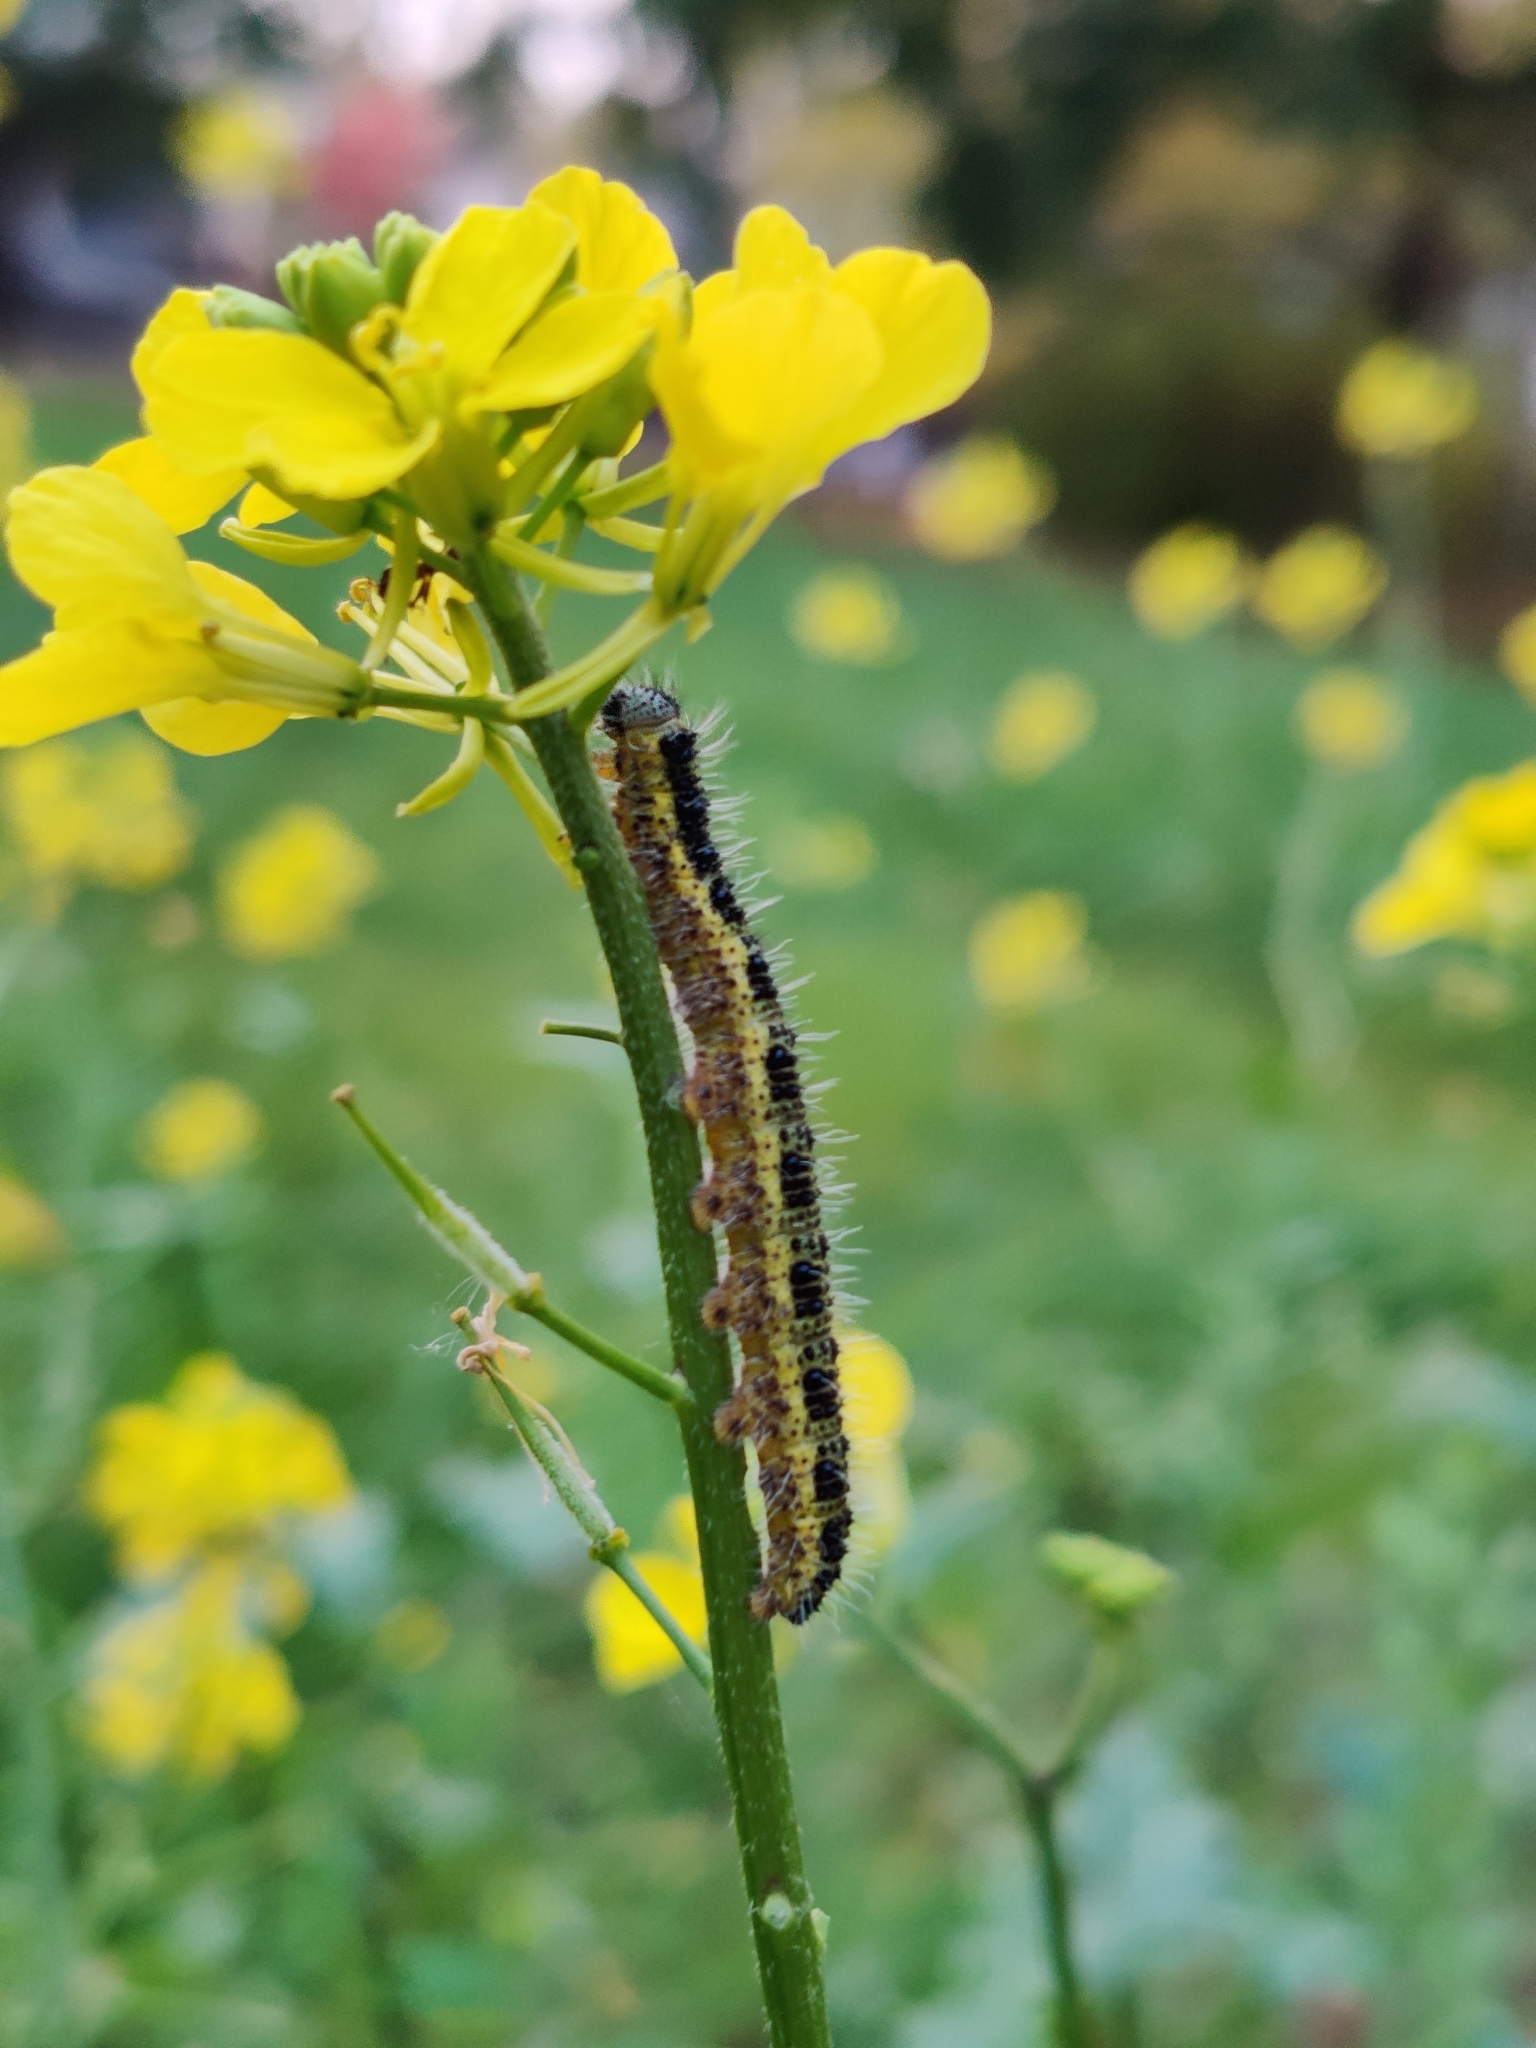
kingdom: Animalia
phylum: Arthropoda
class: Insecta
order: Lepidoptera
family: Pieridae
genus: Pieris
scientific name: Pieris brassicae
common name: Large white
